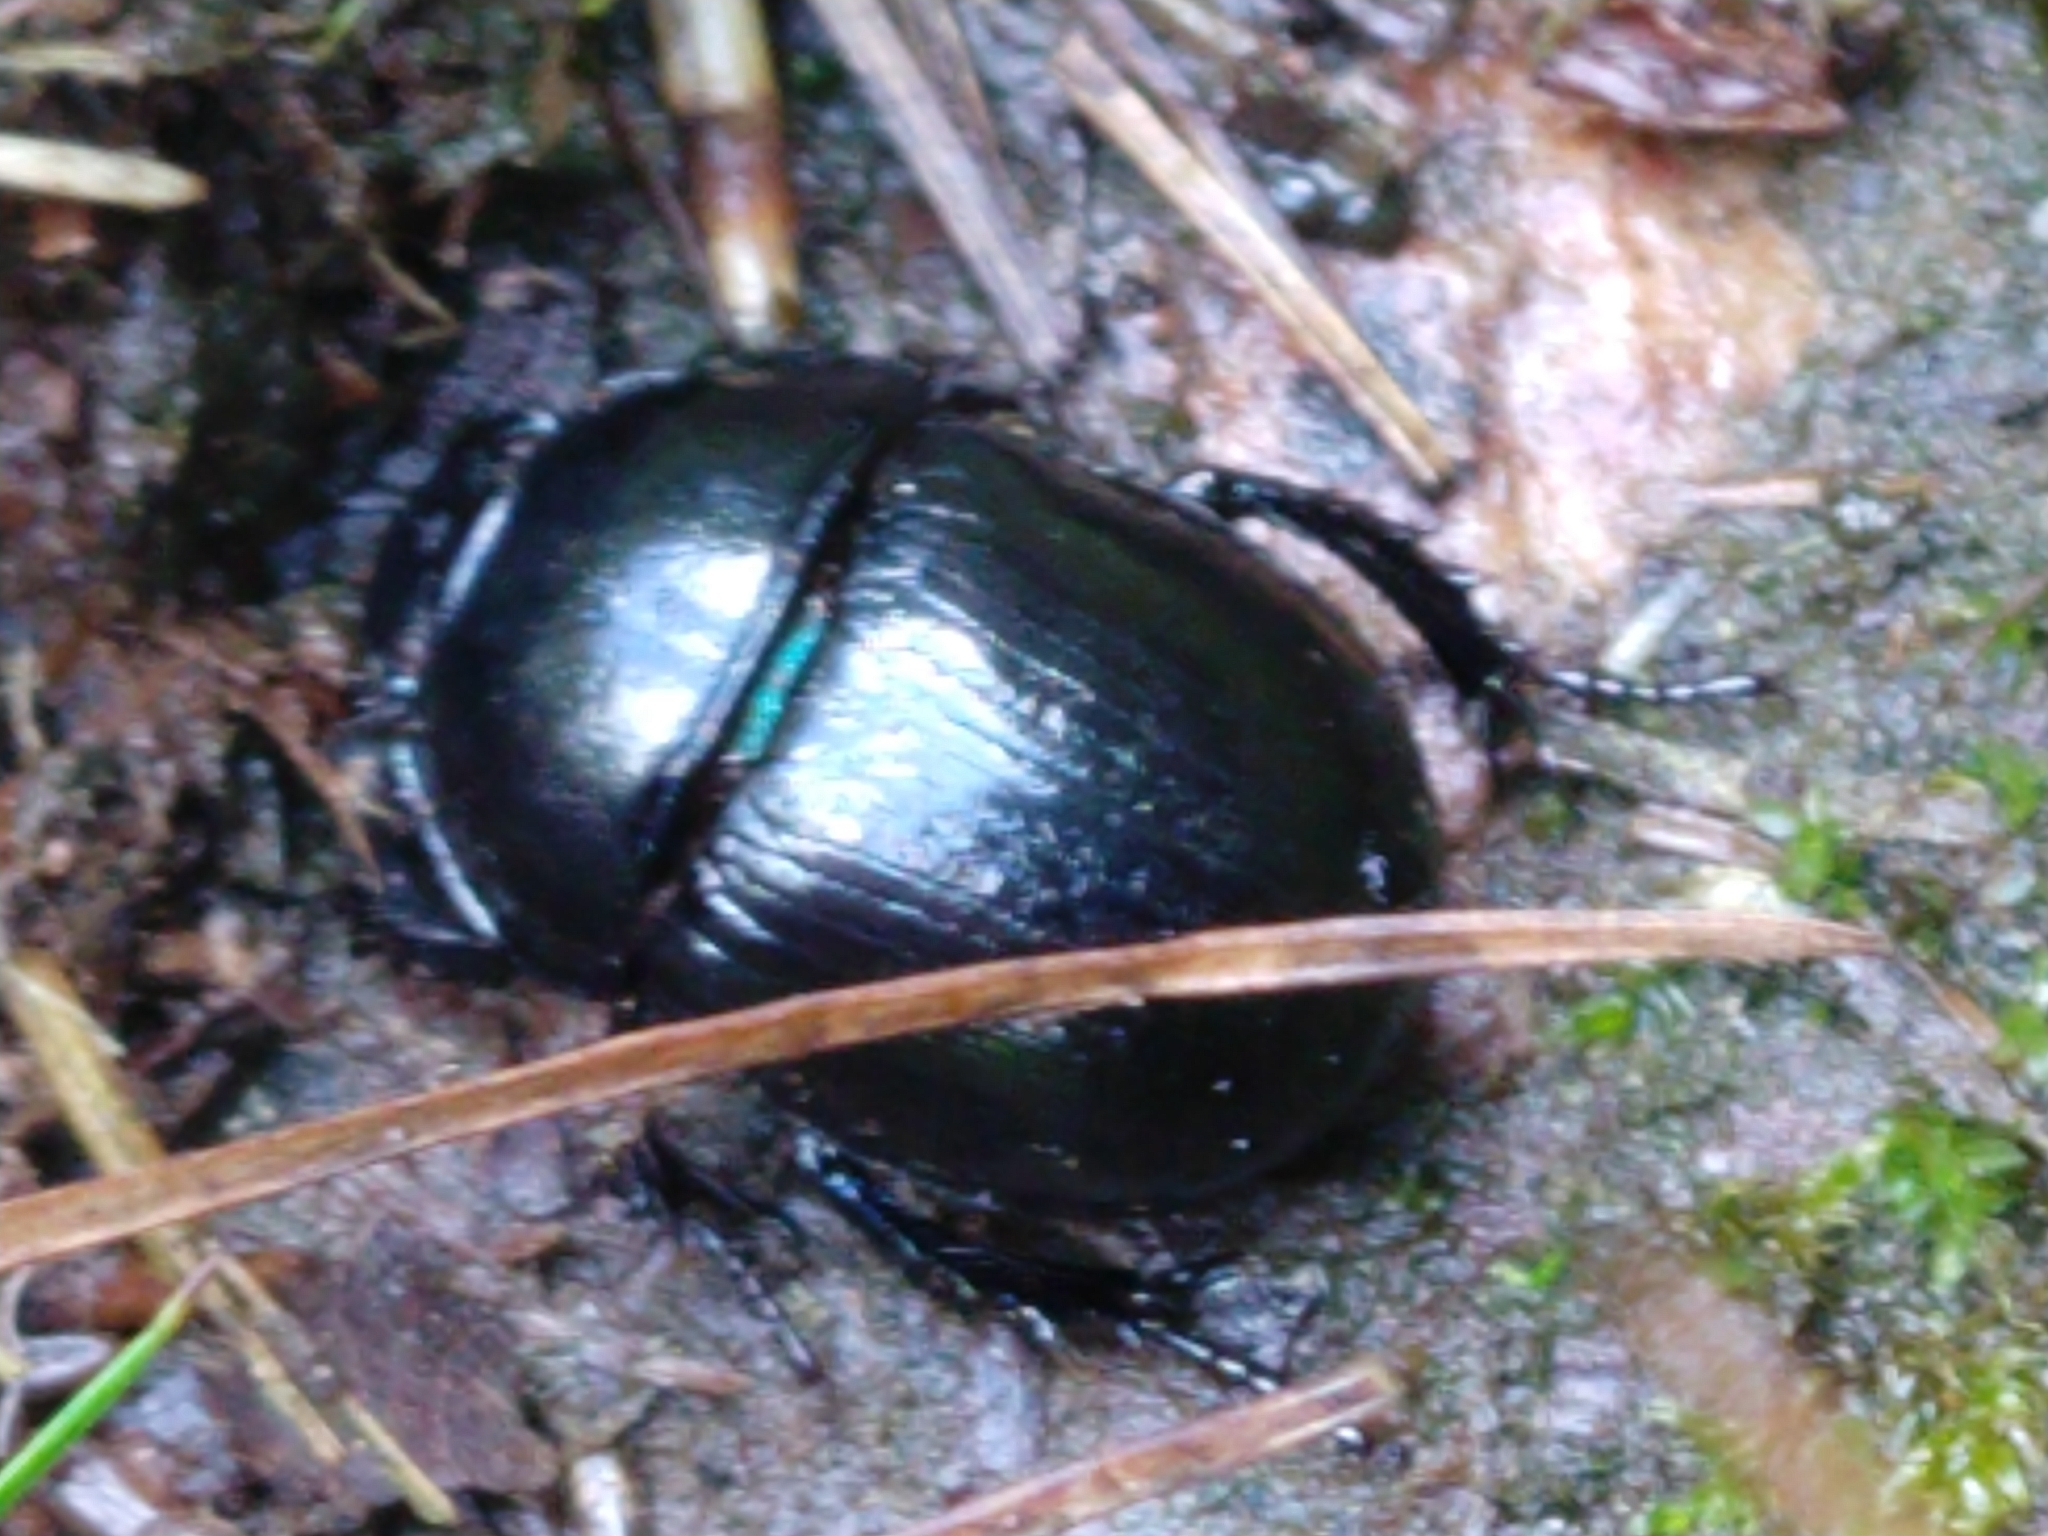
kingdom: Animalia
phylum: Arthropoda
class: Insecta
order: Coleoptera
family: Geotrupidae
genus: Anoplotrupes
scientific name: Anoplotrupes stercorosus
